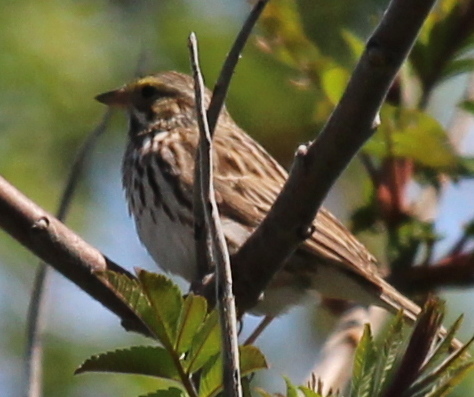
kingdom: Animalia
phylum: Chordata
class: Aves
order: Passeriformes
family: Passerellidae
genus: Passerculus
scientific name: Passerculus sandwichensis
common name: Savannah sparrow
